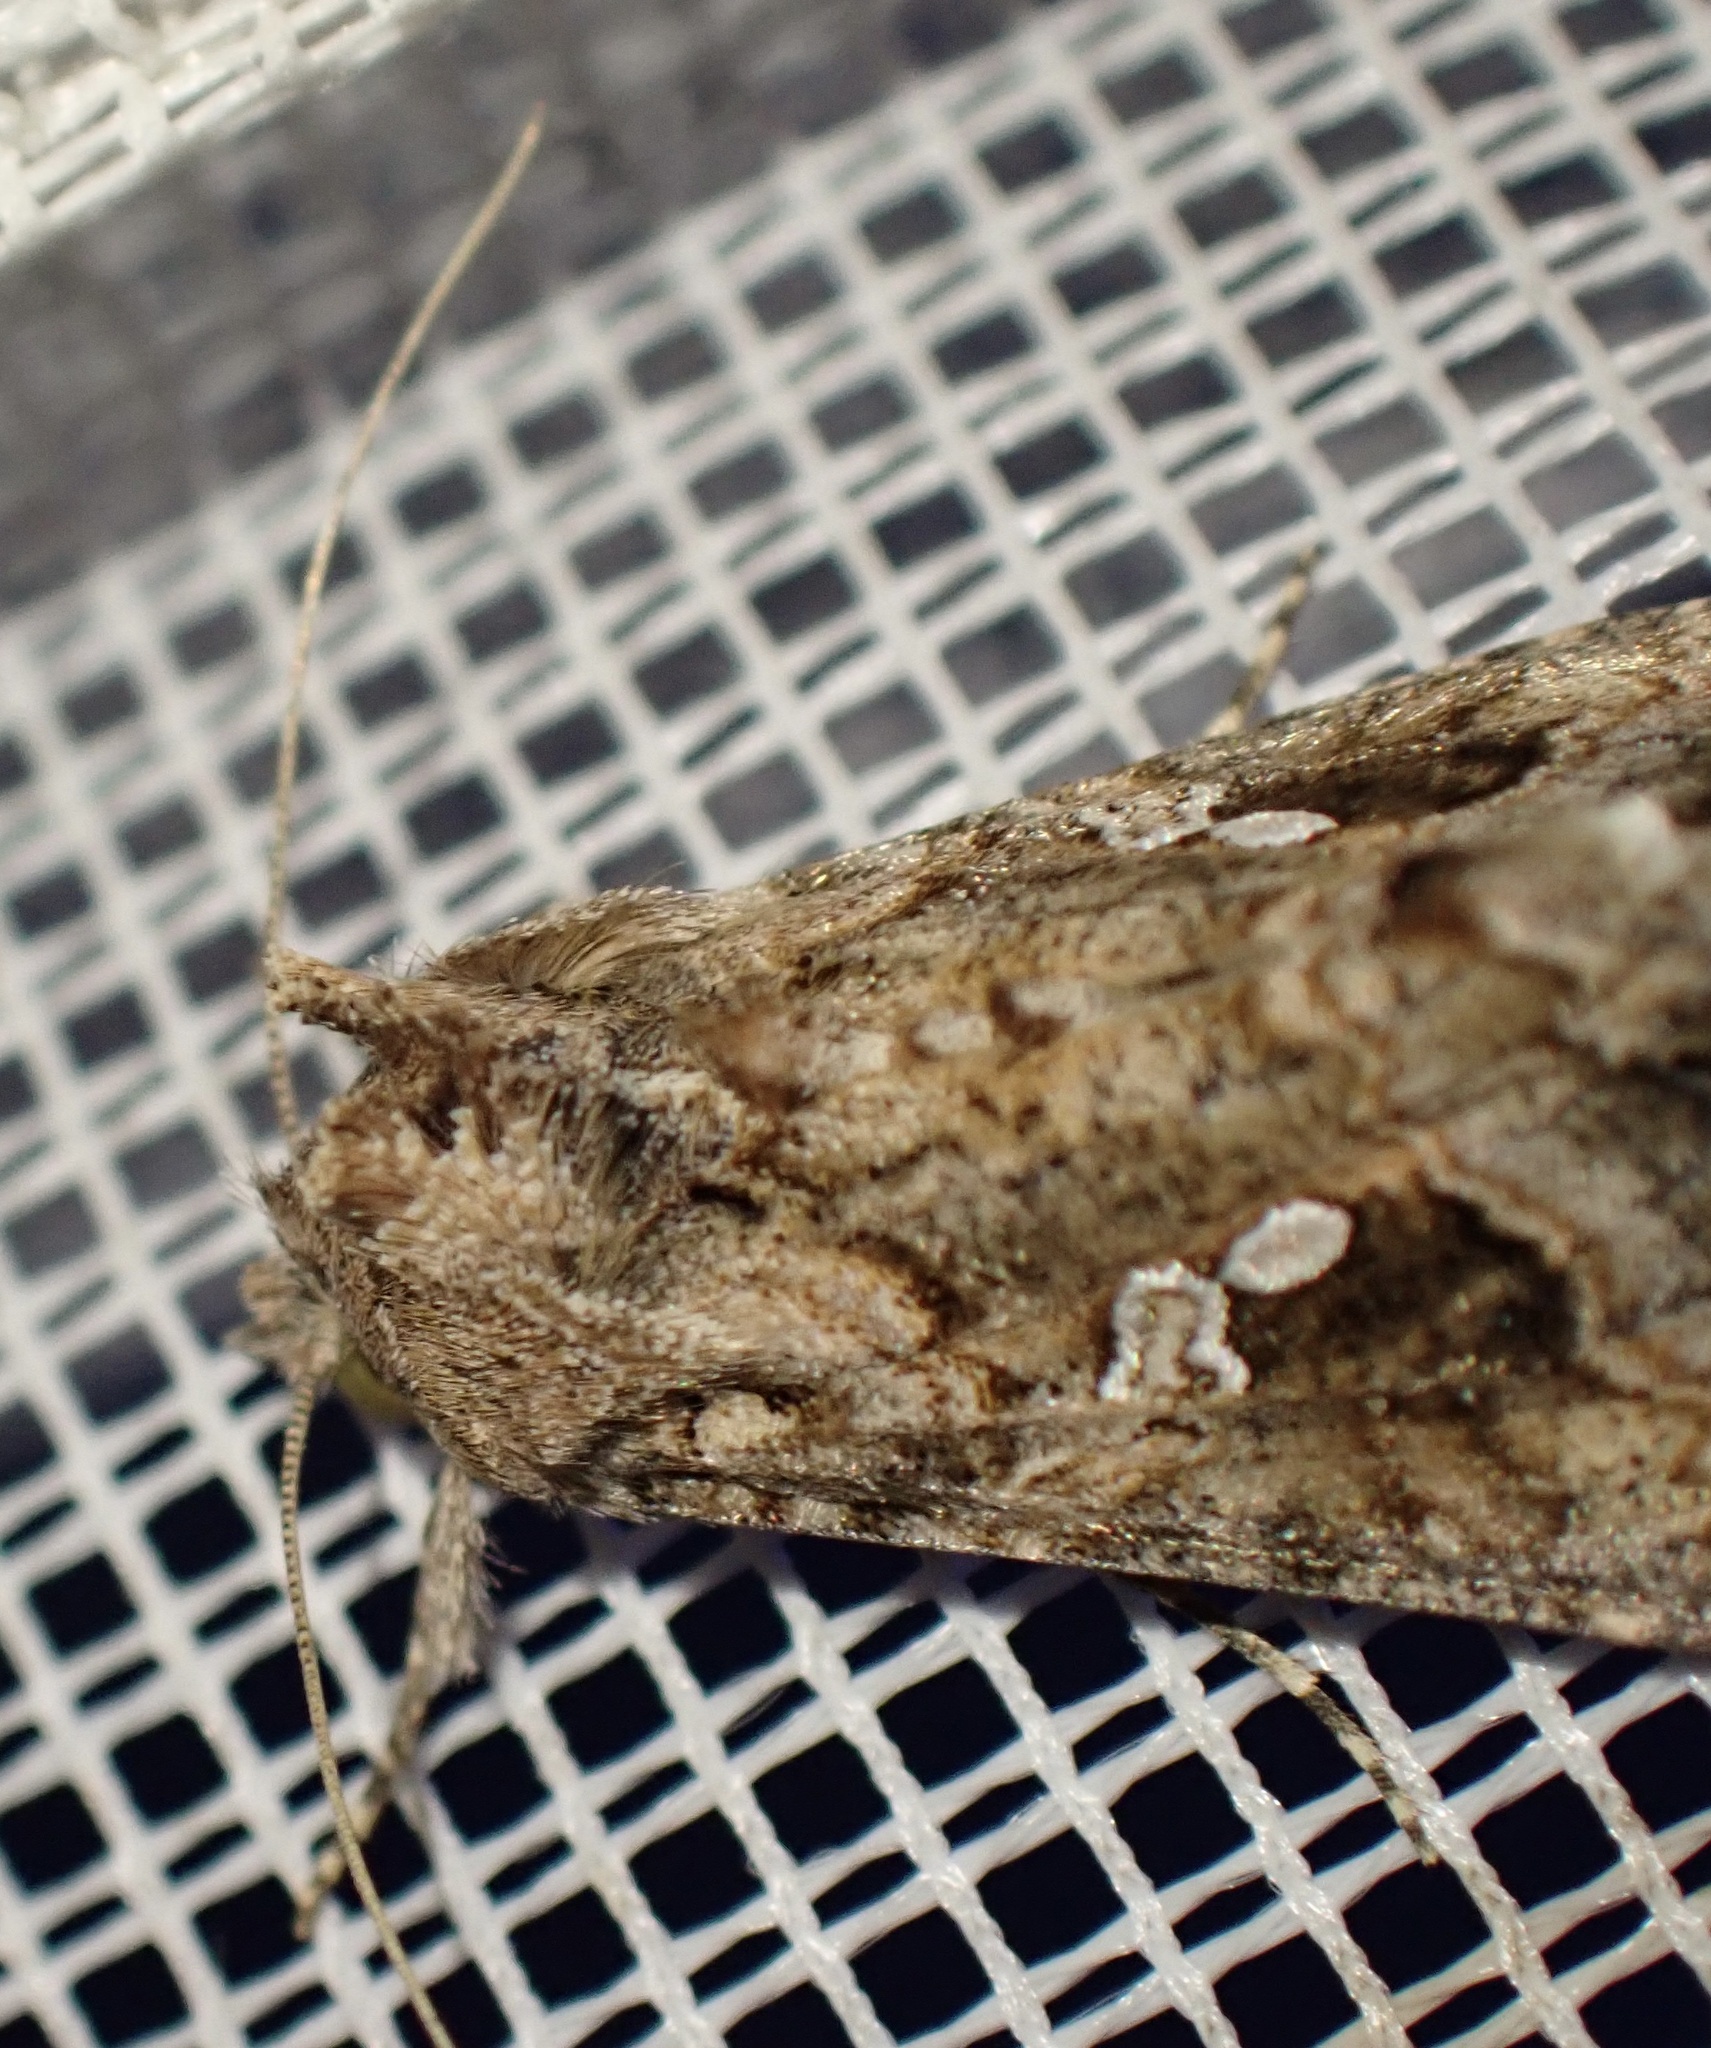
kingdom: Animalia
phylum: Arthropoda
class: Insecta
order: Lepidoptera
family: Noctuidae
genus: Trichoplusia
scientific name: Trichoplusia ni
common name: Ni moth
